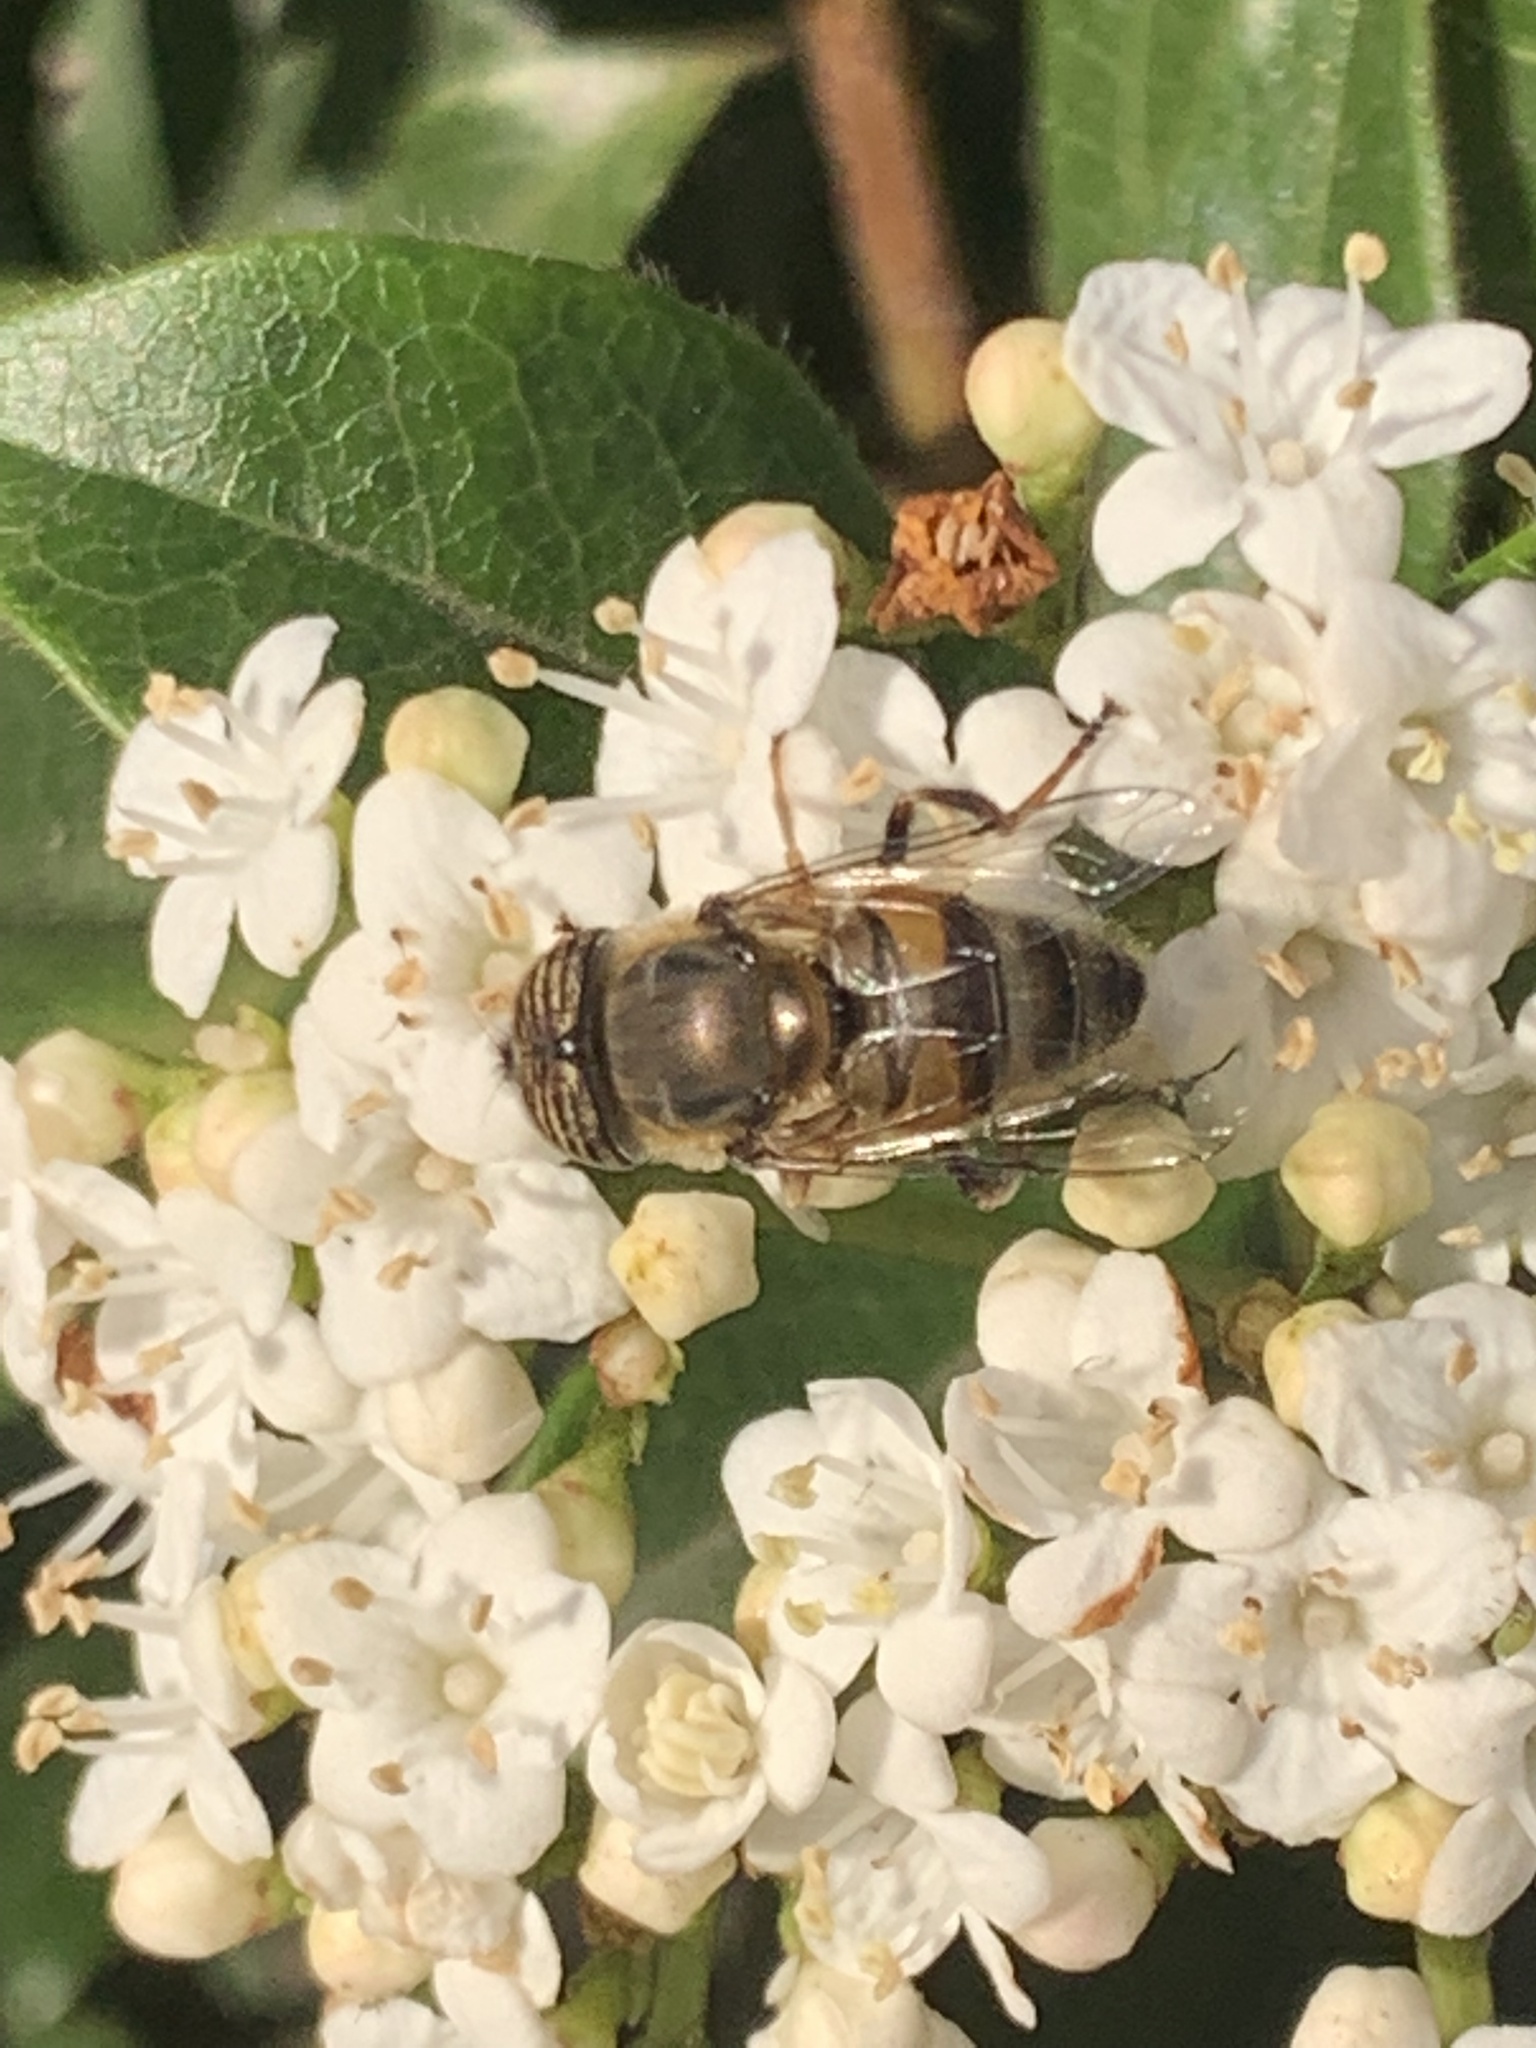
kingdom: Animalia
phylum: Arthropoda
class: Insecta
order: Diptera
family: Syrphidae
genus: Eristalinus
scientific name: Eristalinus taeniops
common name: Syrphid fly
